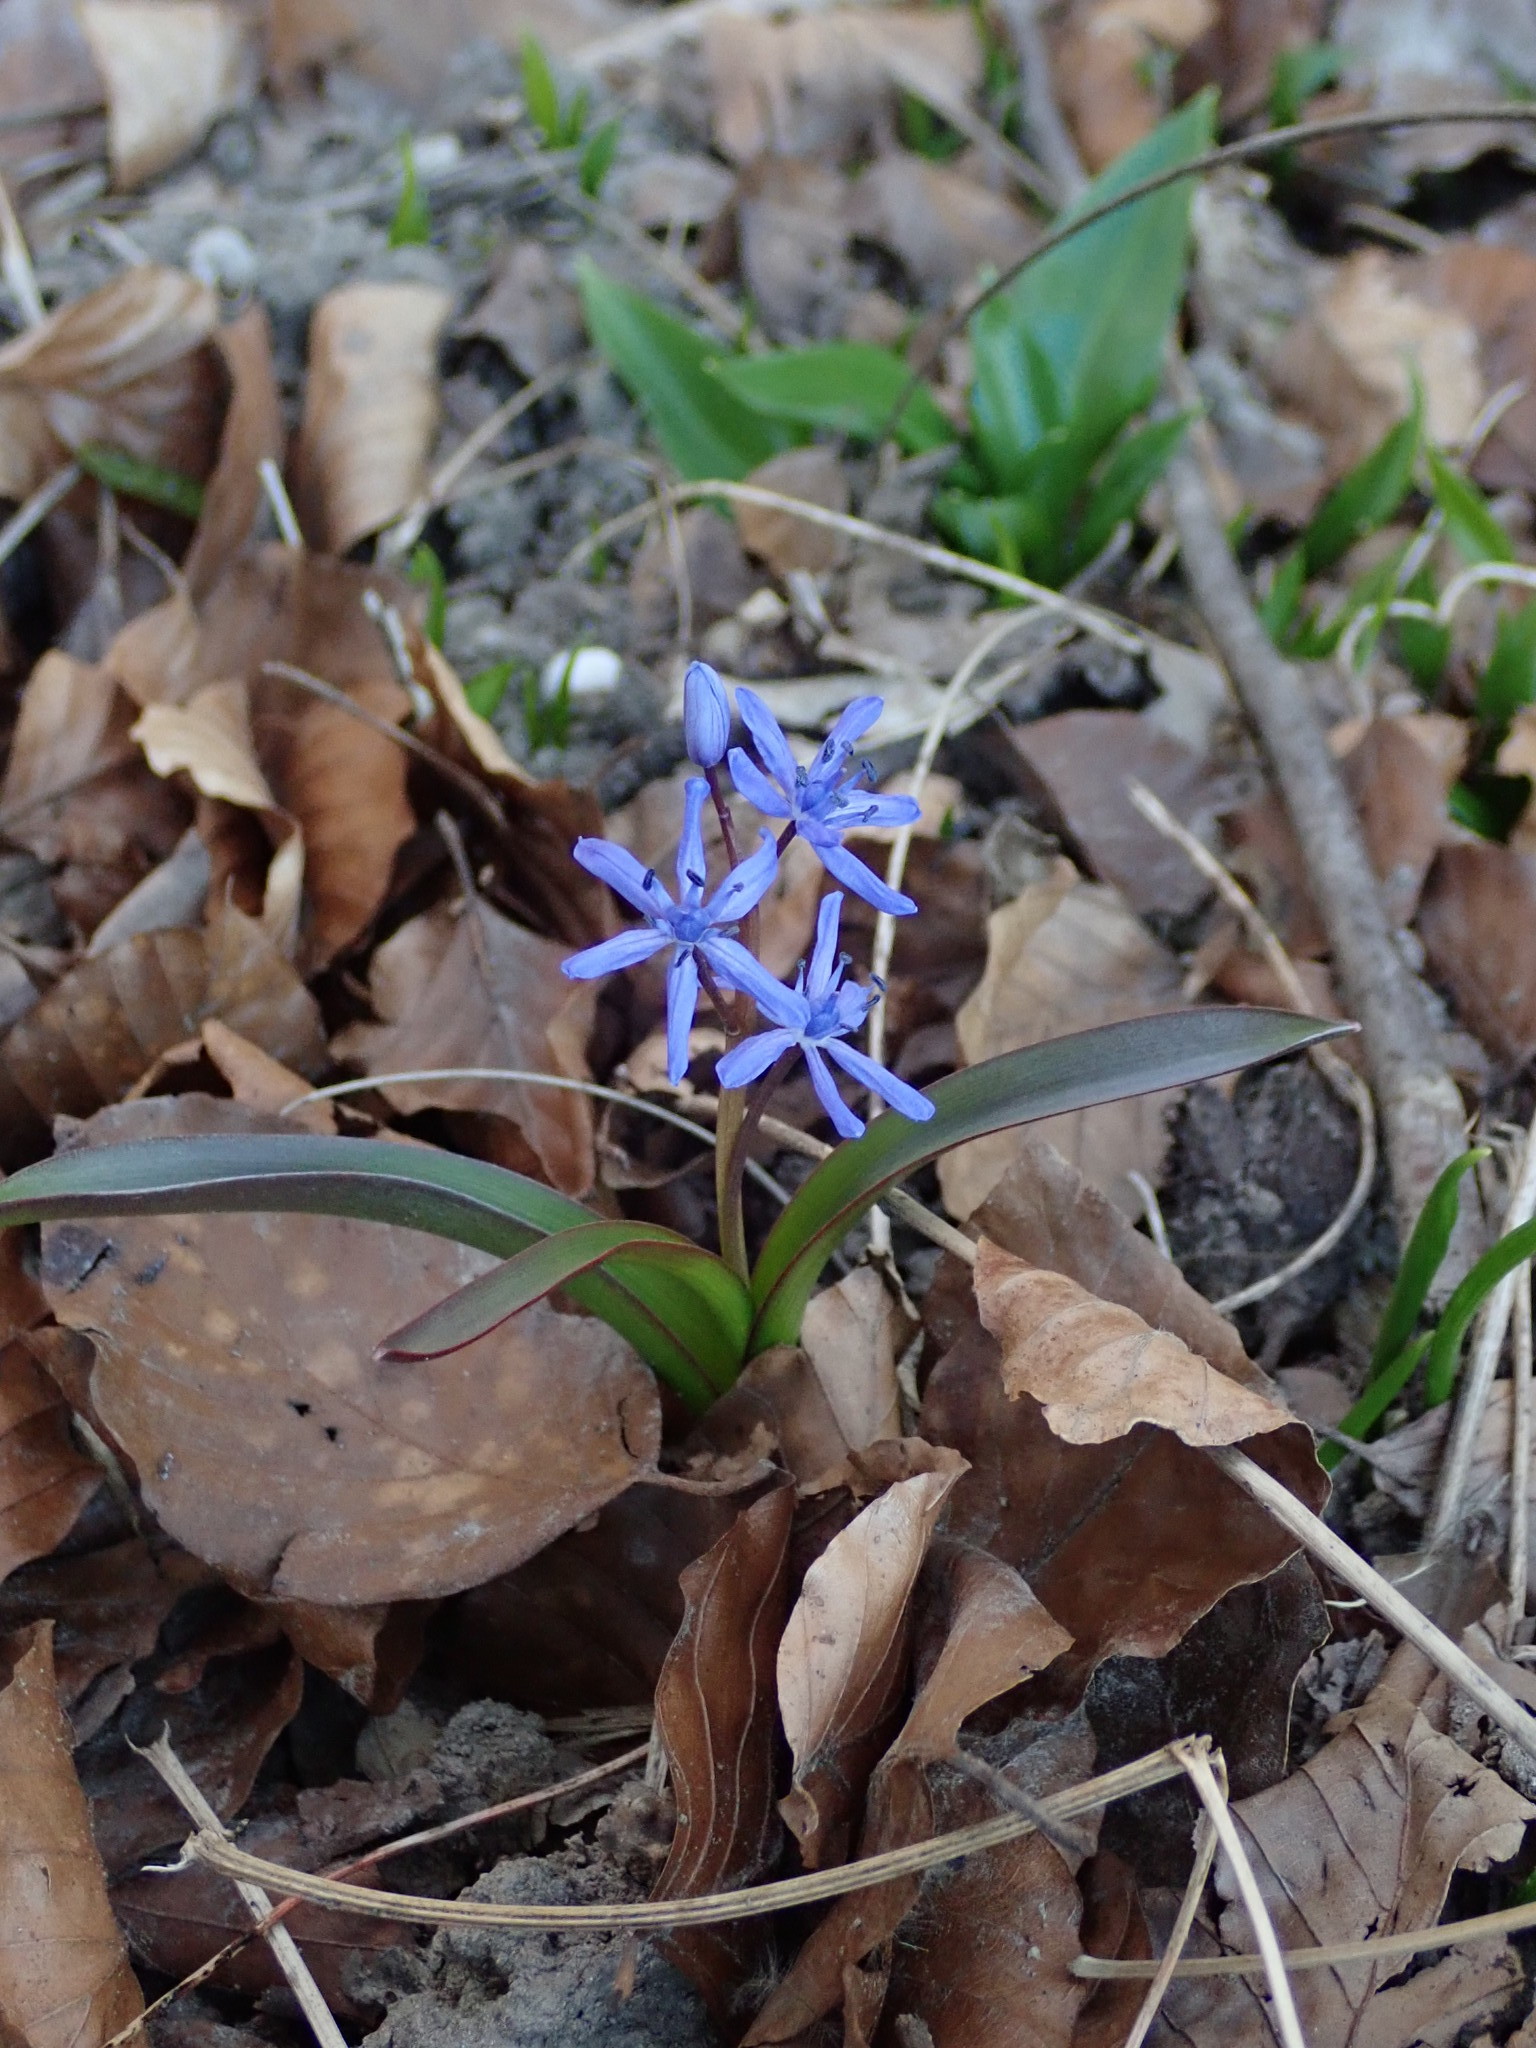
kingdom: Plantae
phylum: Tracheophyta
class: Liliopsida
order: Asparagales
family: Asparagaceae
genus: Scilla
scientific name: Scilla bifolia
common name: Alpine squill
